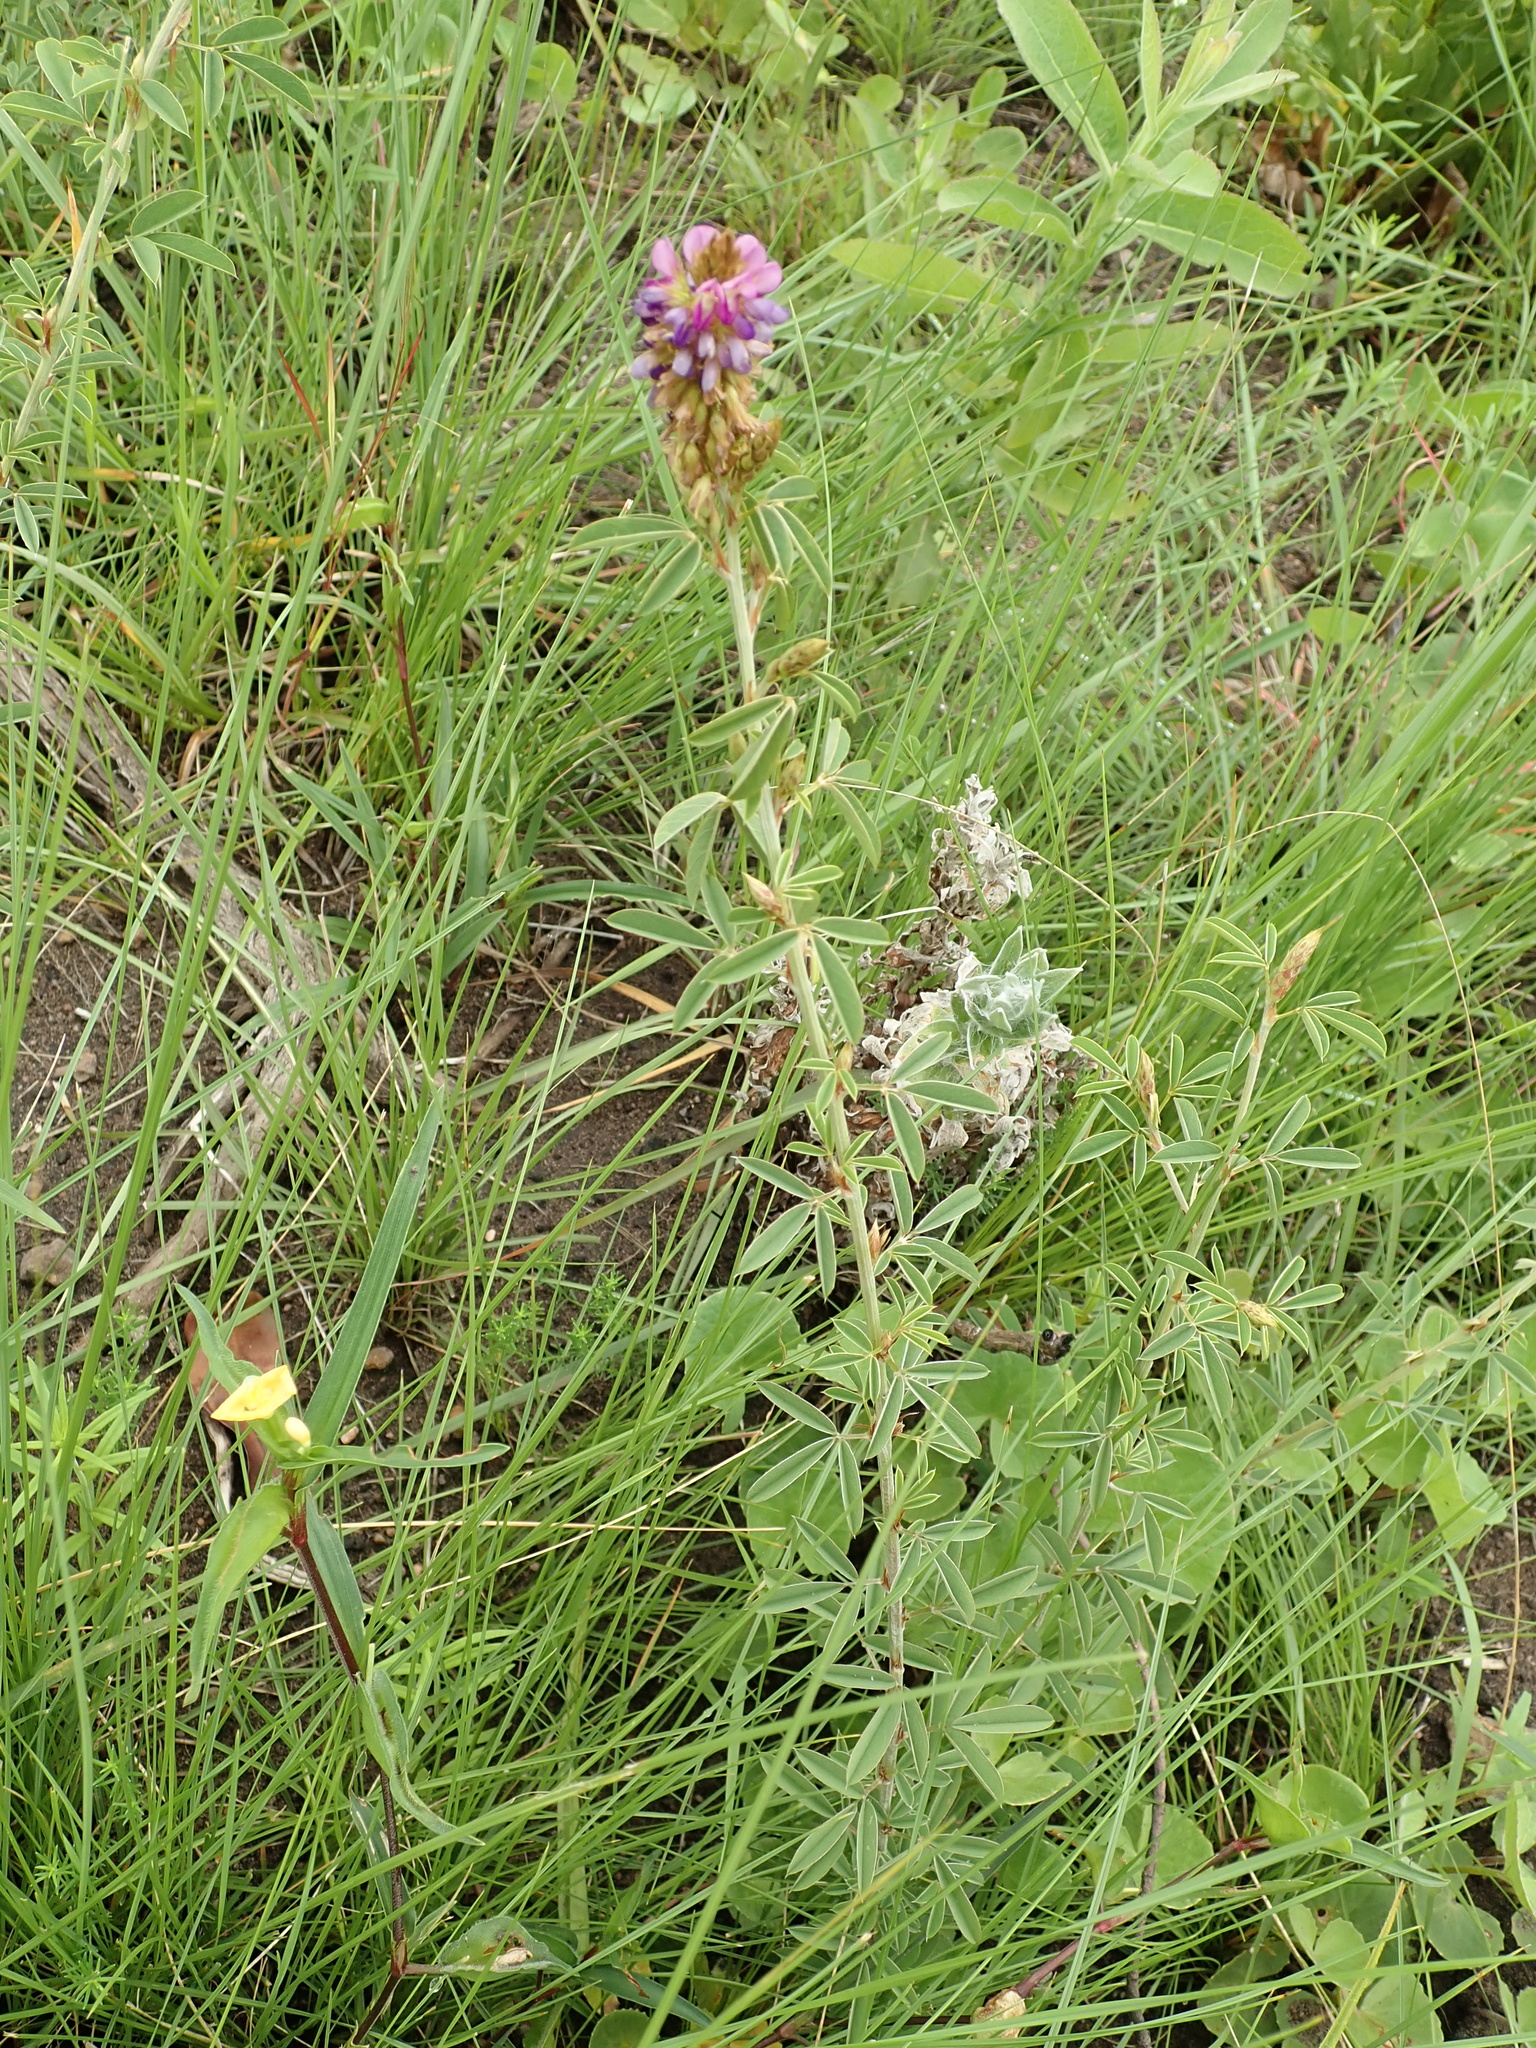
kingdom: Plantae
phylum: Tracheophyta
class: Magnoliopsida
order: Fabales
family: Fabaceae
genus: Grona
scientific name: Grona caffra
